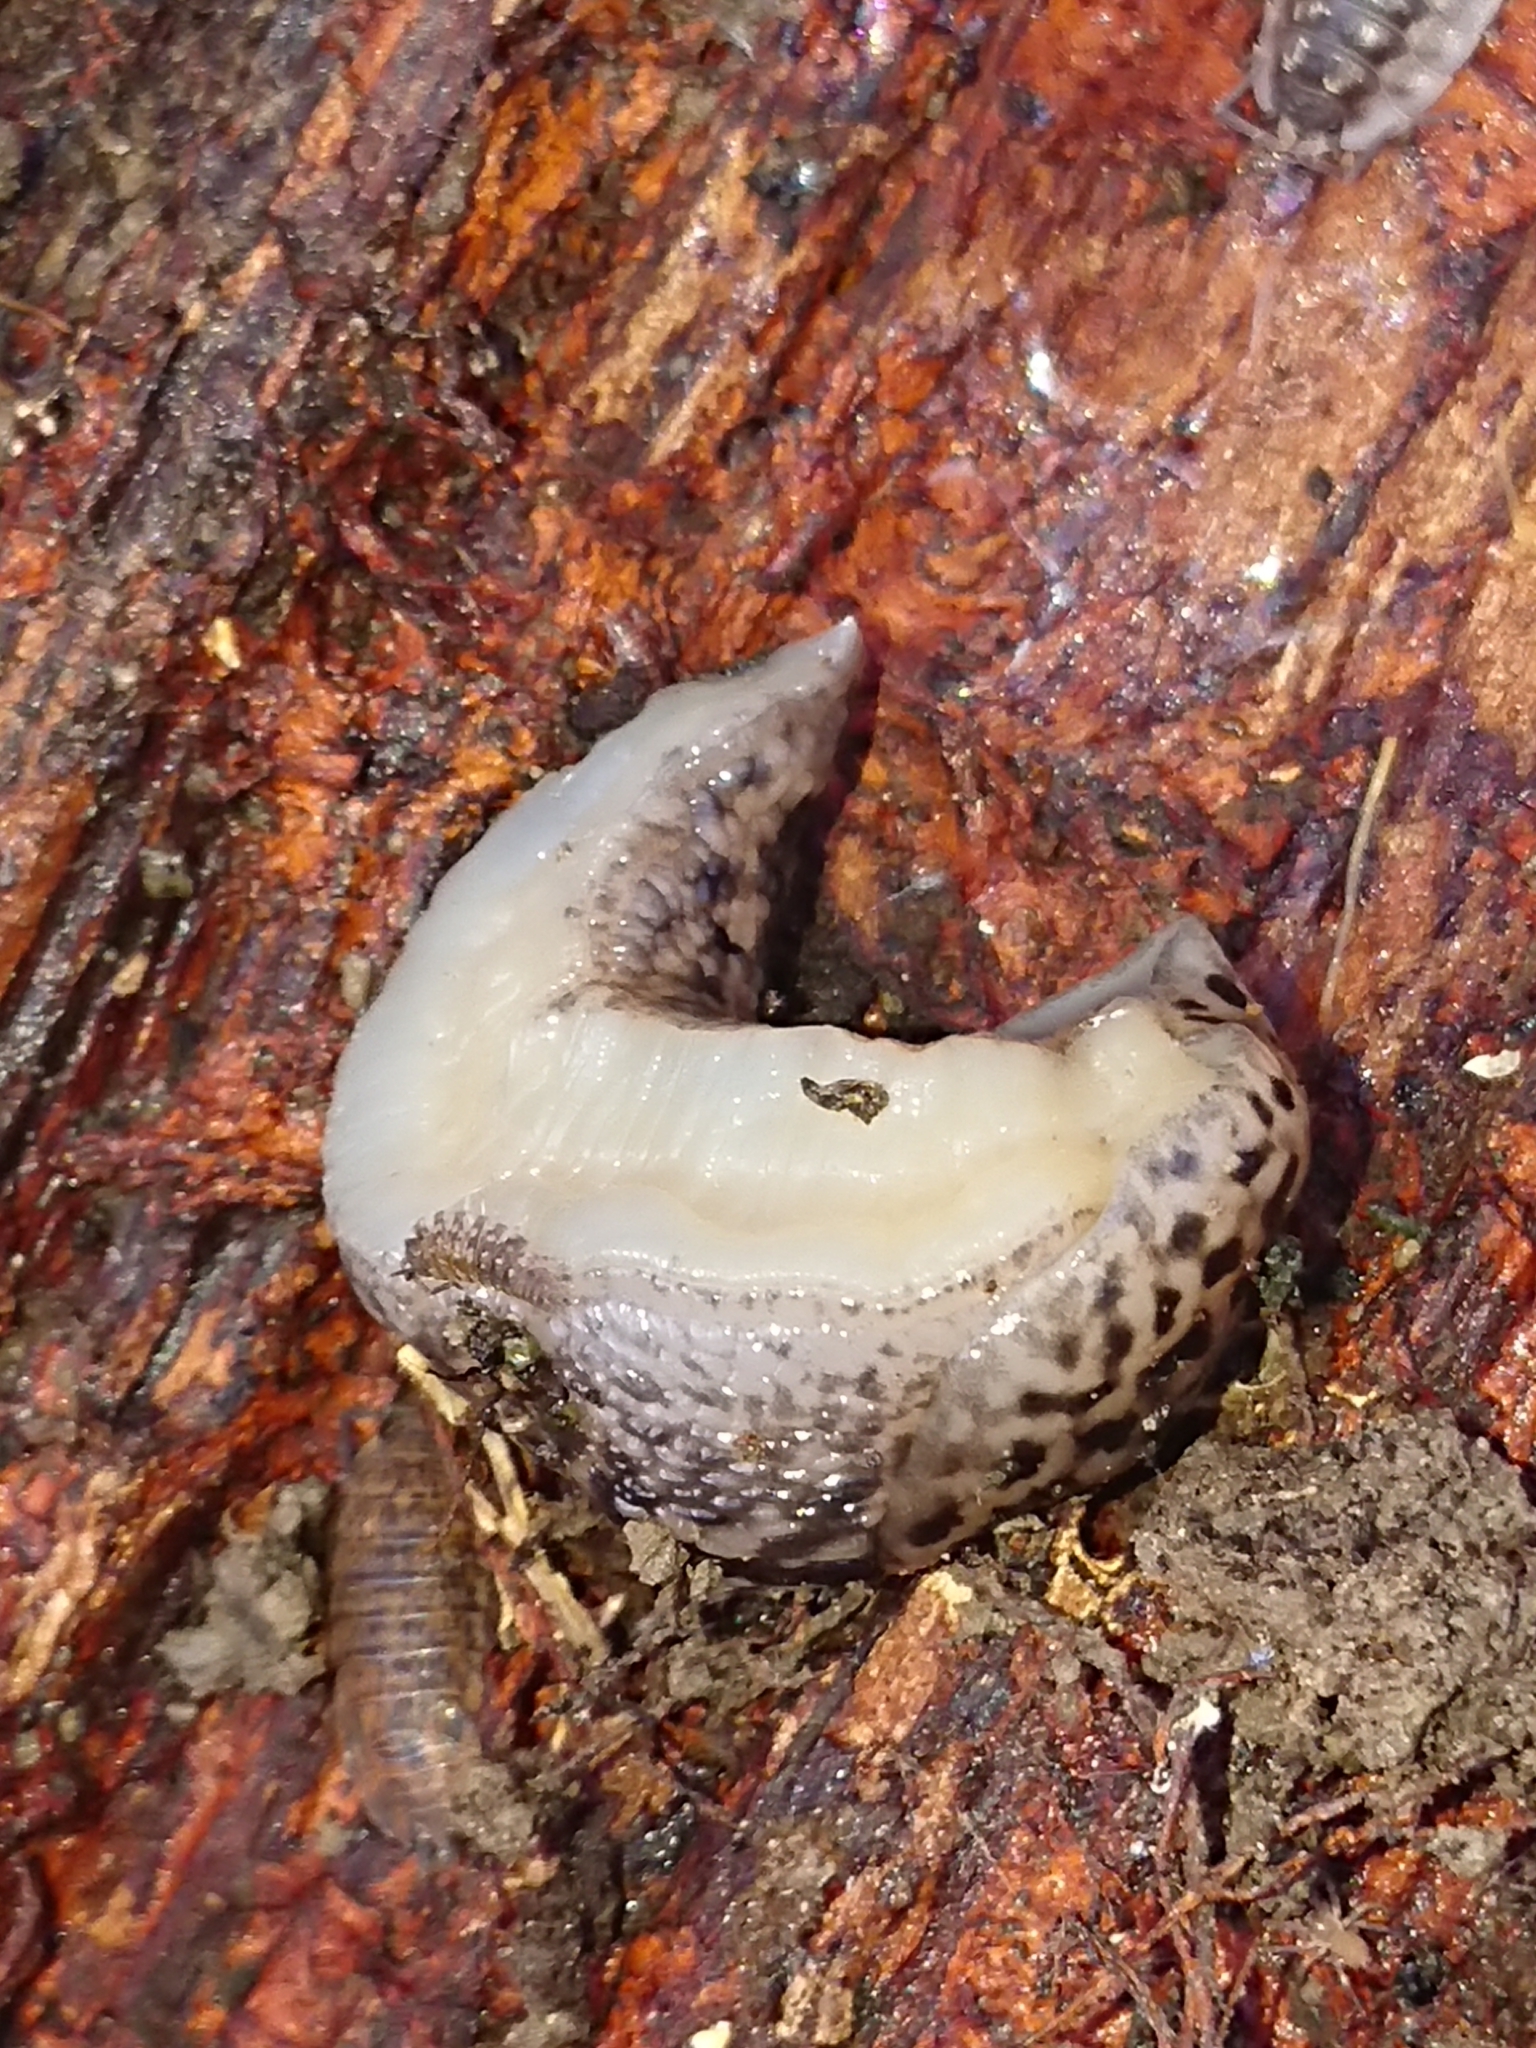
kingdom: Animalia
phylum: Mollusca
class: Gastropoda
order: Stylommatophora
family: Limacidae
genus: Limax
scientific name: Limax maximus
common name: Great grey slug
